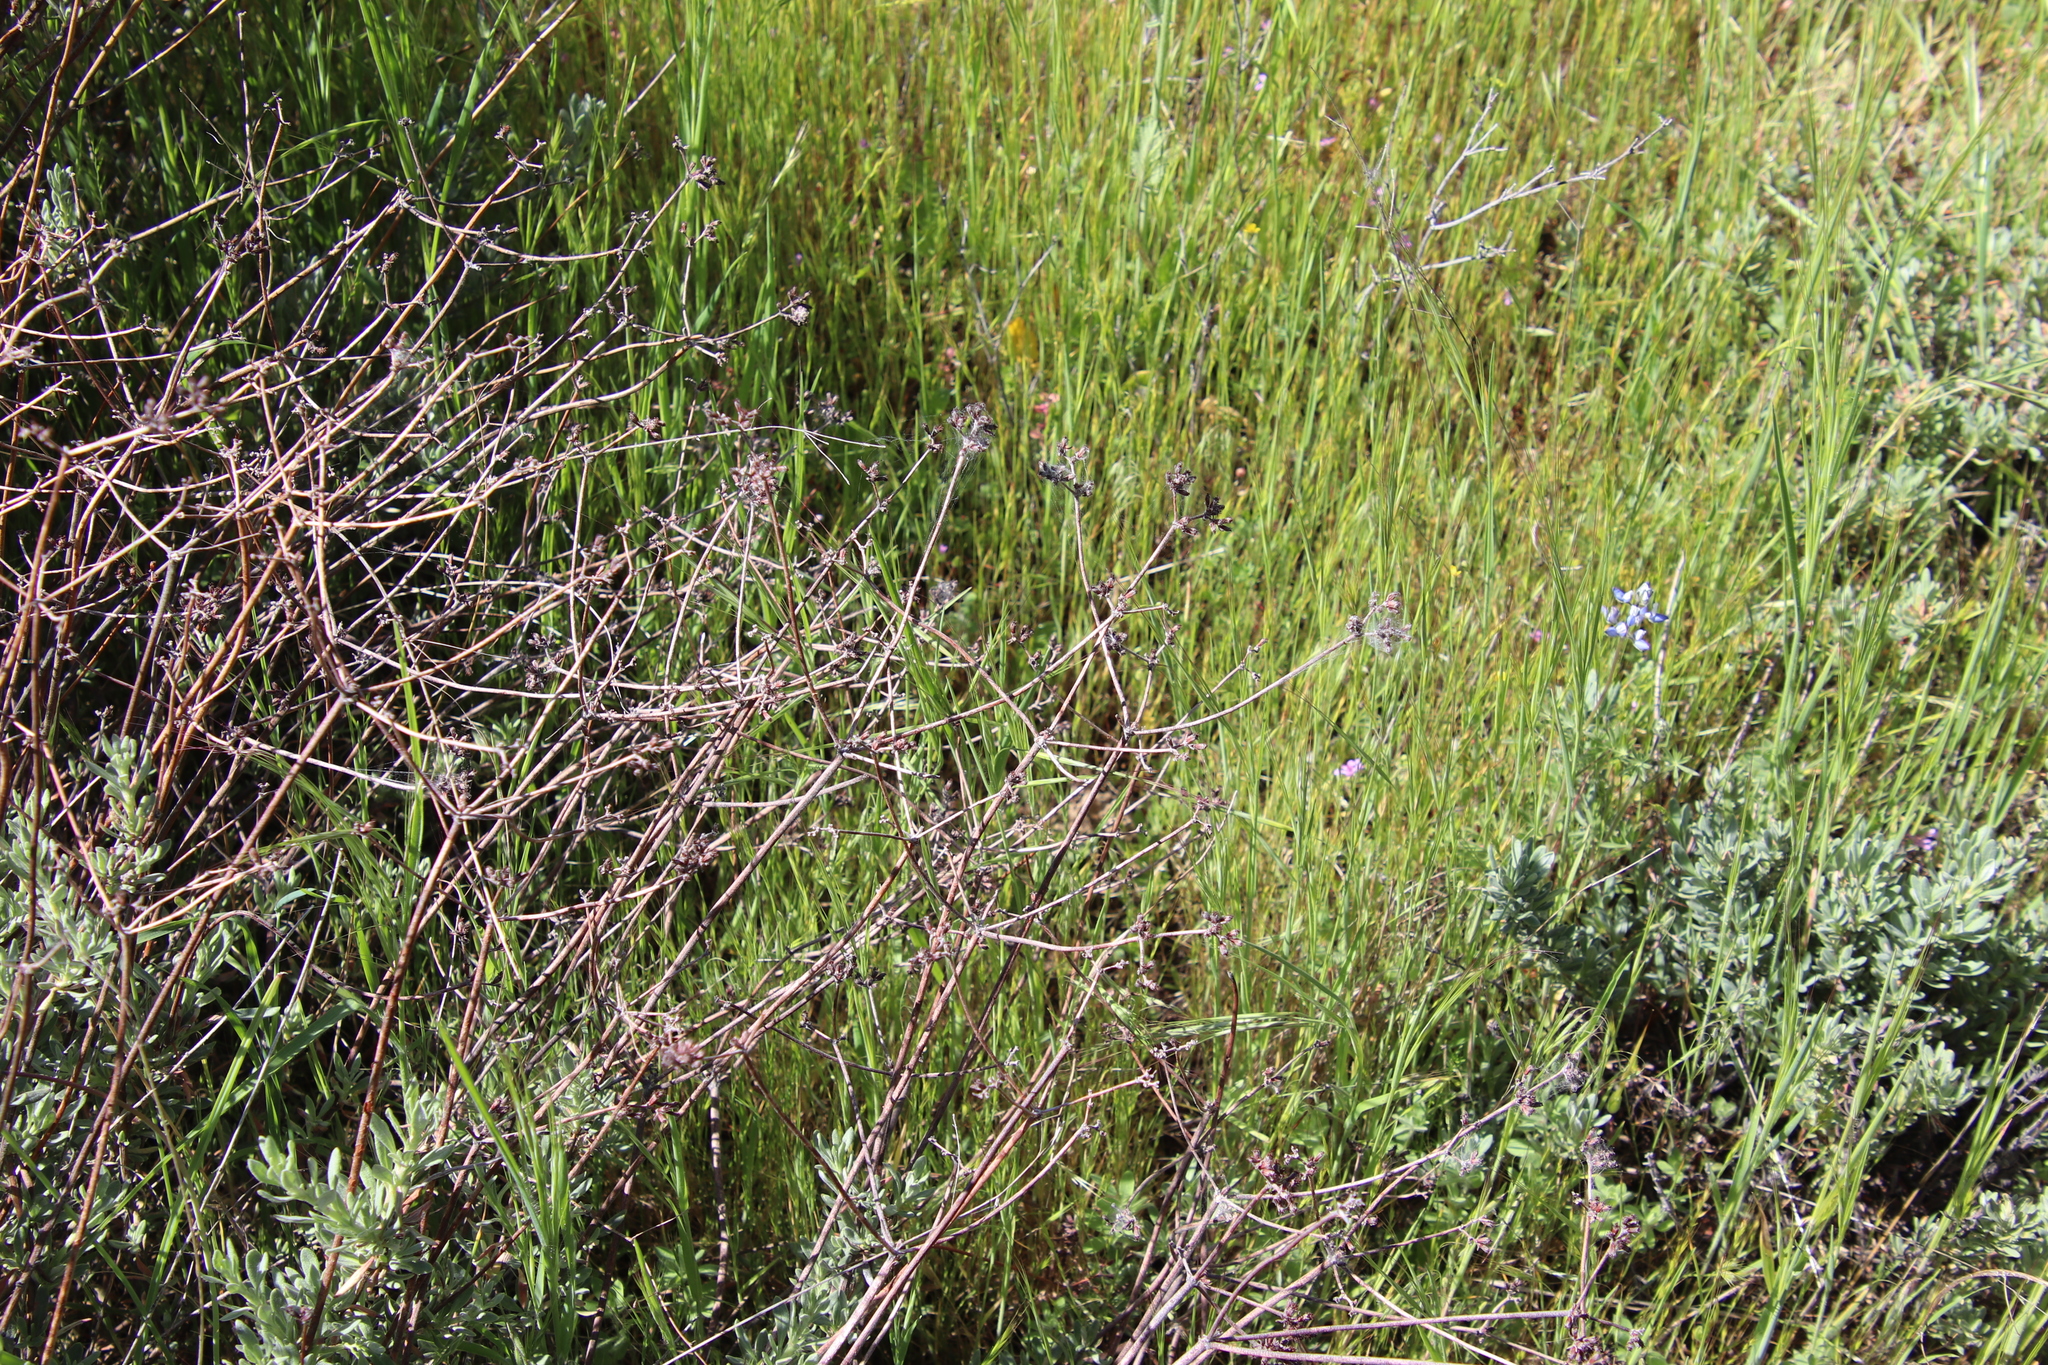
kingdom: Plantae
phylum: Tracheophyta
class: Magnoliopsida
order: Caryophyllales
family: Polygonaceae
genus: Eriogonum
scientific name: Eriogonum fasciculatum
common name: California wild buckwheat
